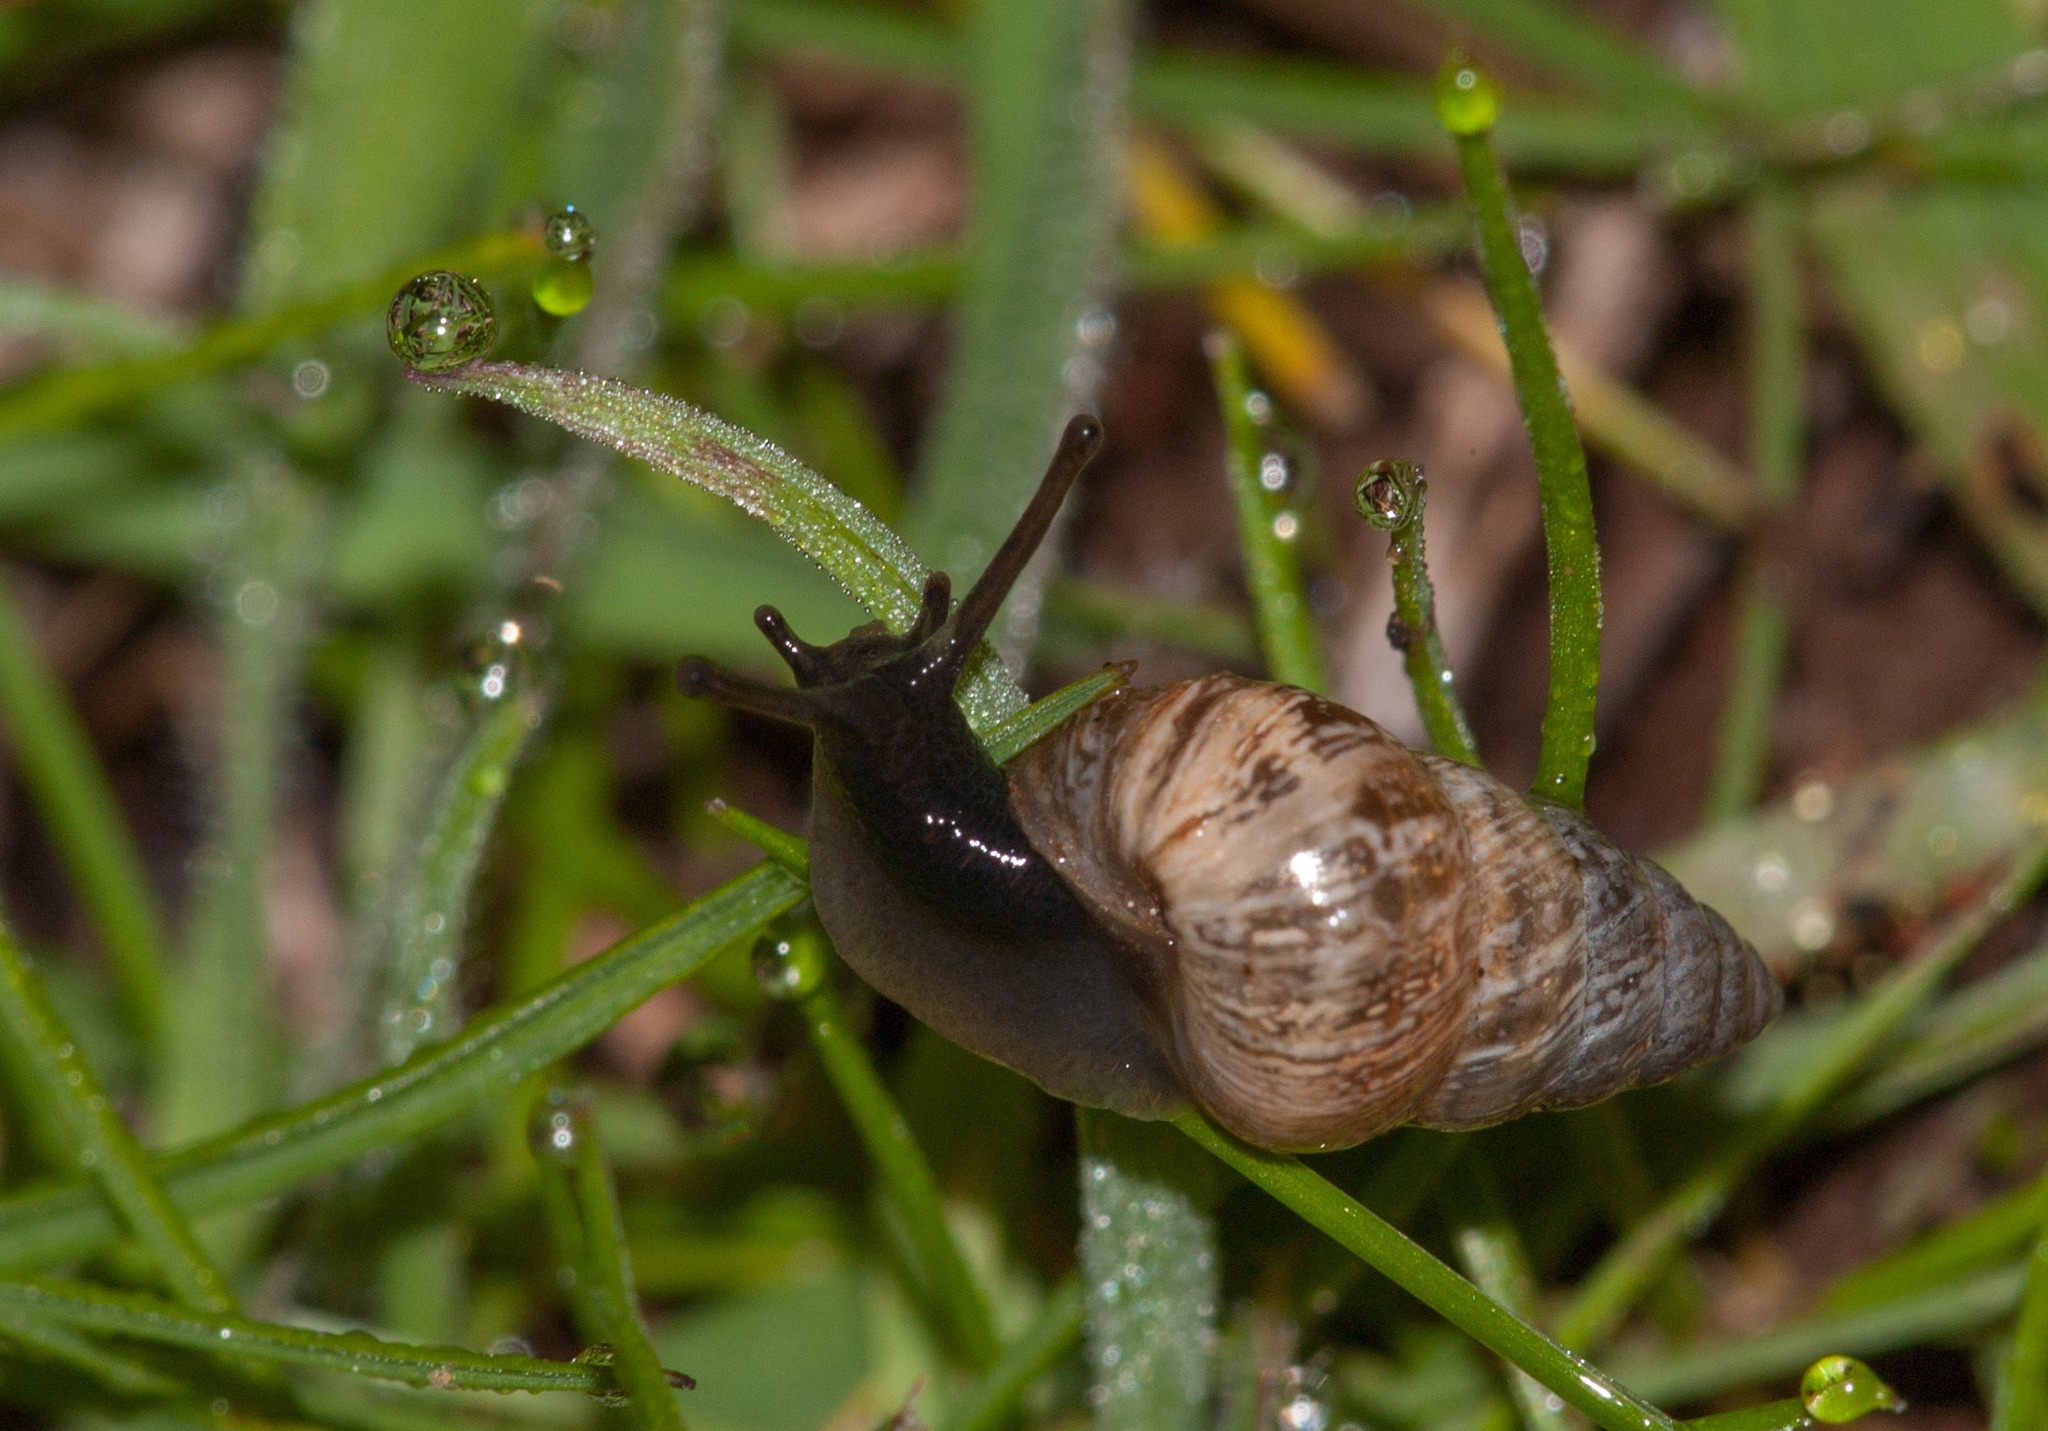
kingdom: Animalia
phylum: Mollusca
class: Gastropoda
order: Stylommatophora
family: Geomitridae
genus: Cochlicella
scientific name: Cochlicella barbara
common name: Potbellied helicellid
